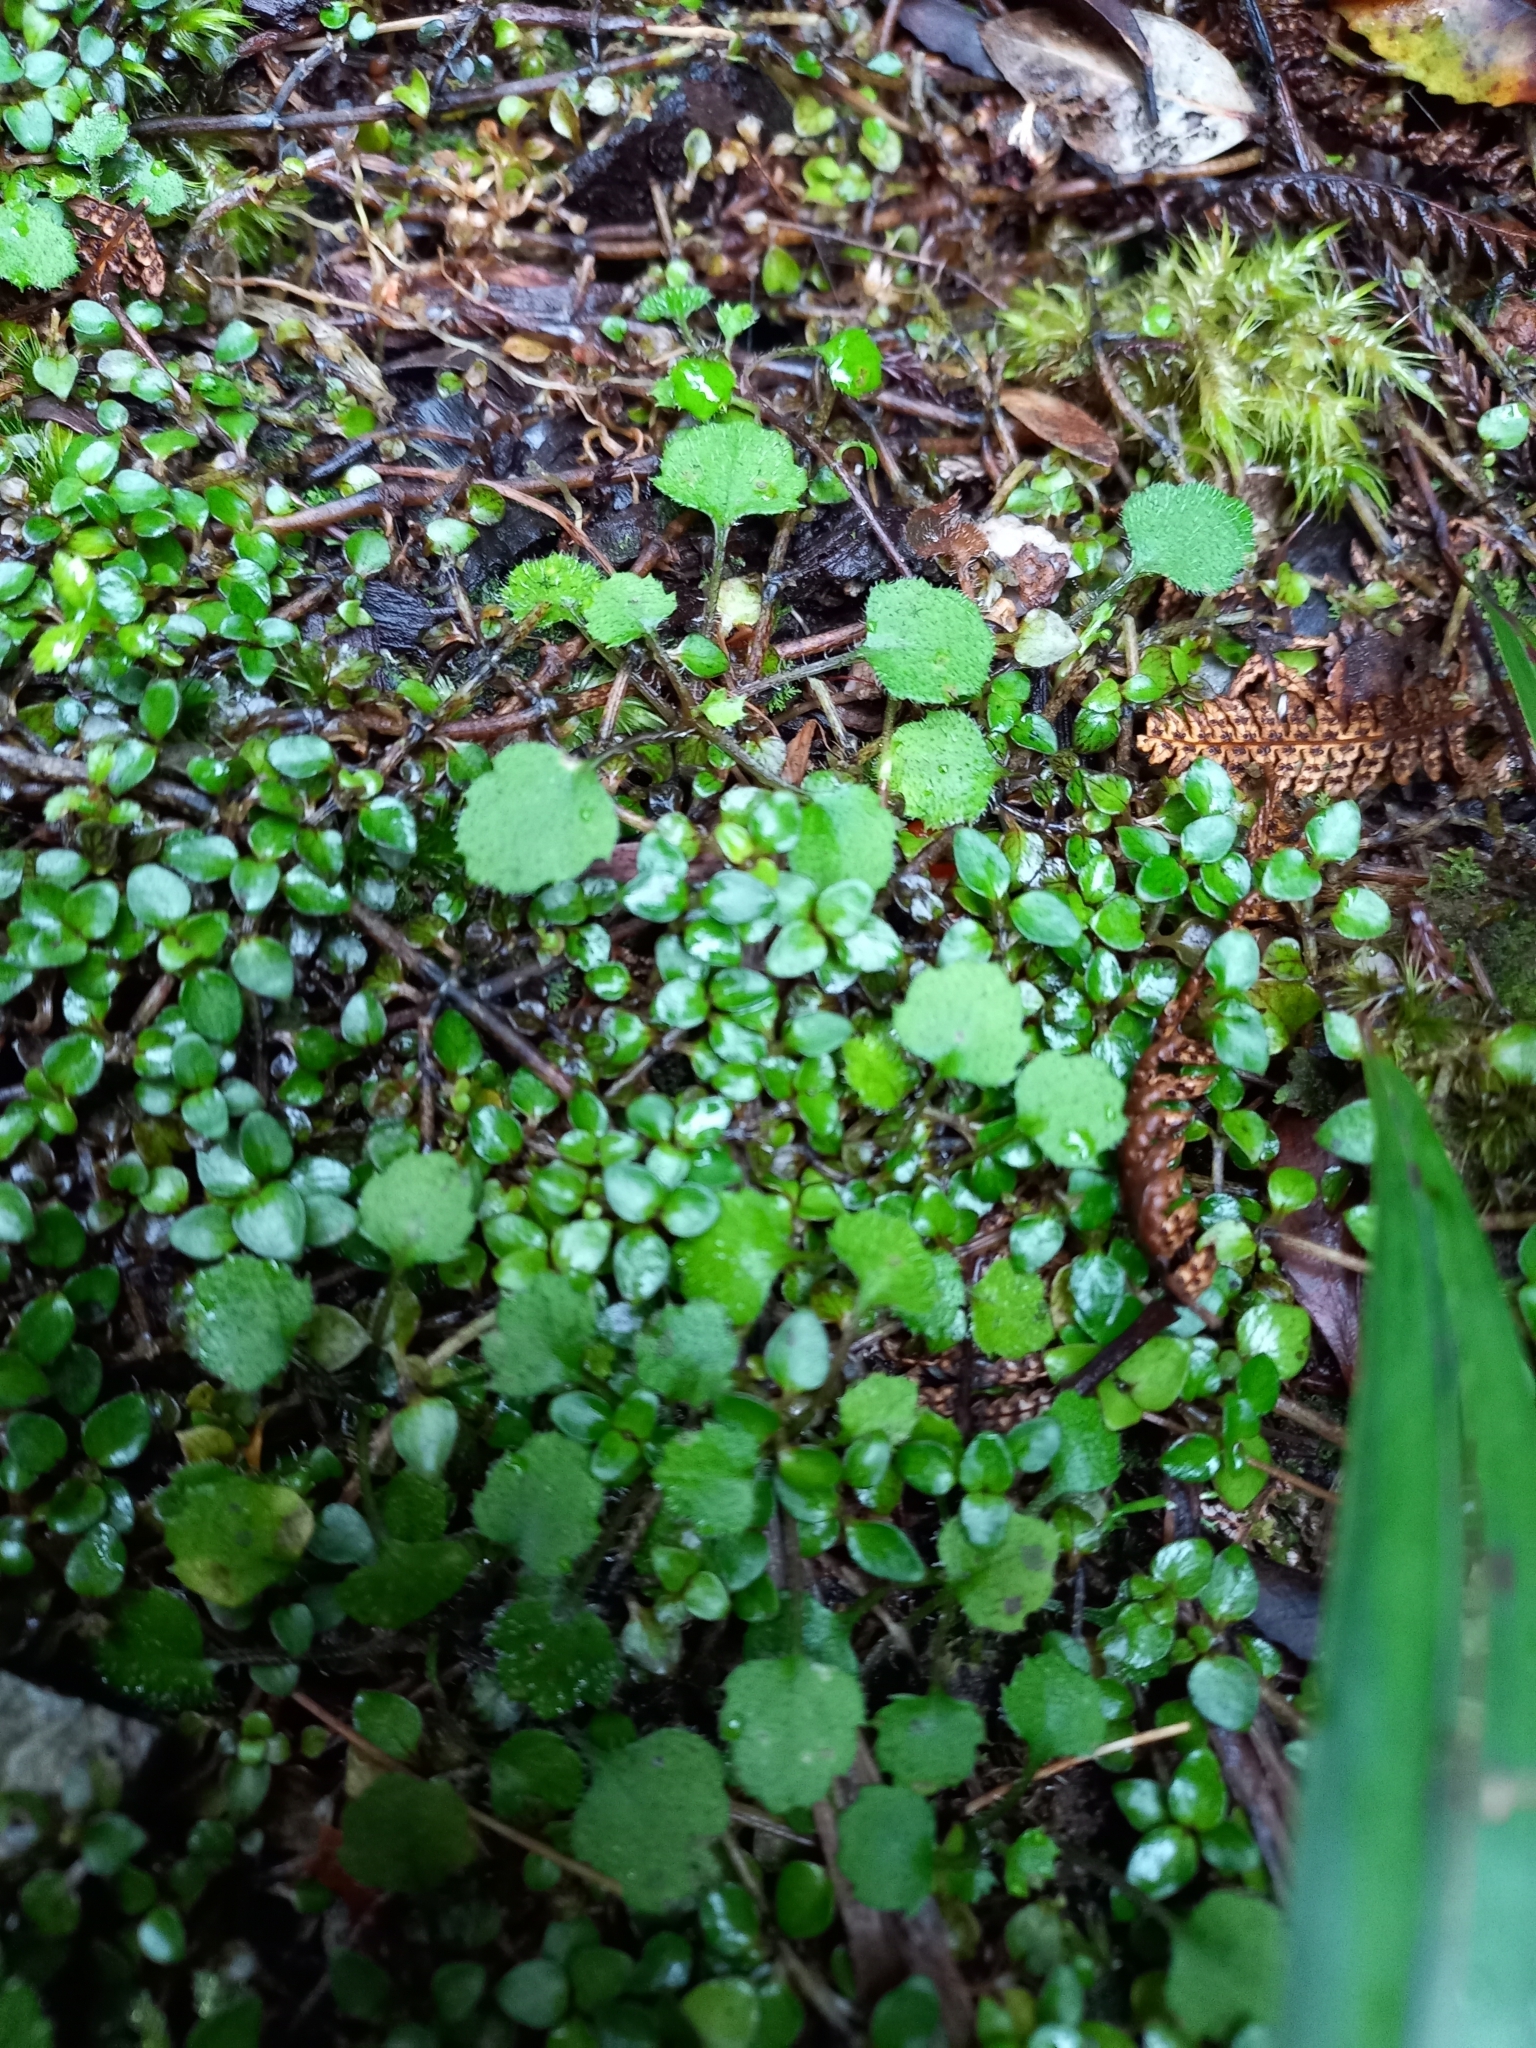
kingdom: Plantae
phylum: Tracheophyta
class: Magnoliopsida
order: Asterales
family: Asteraceae
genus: Lagenophora
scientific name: Lagenophora strangulata
